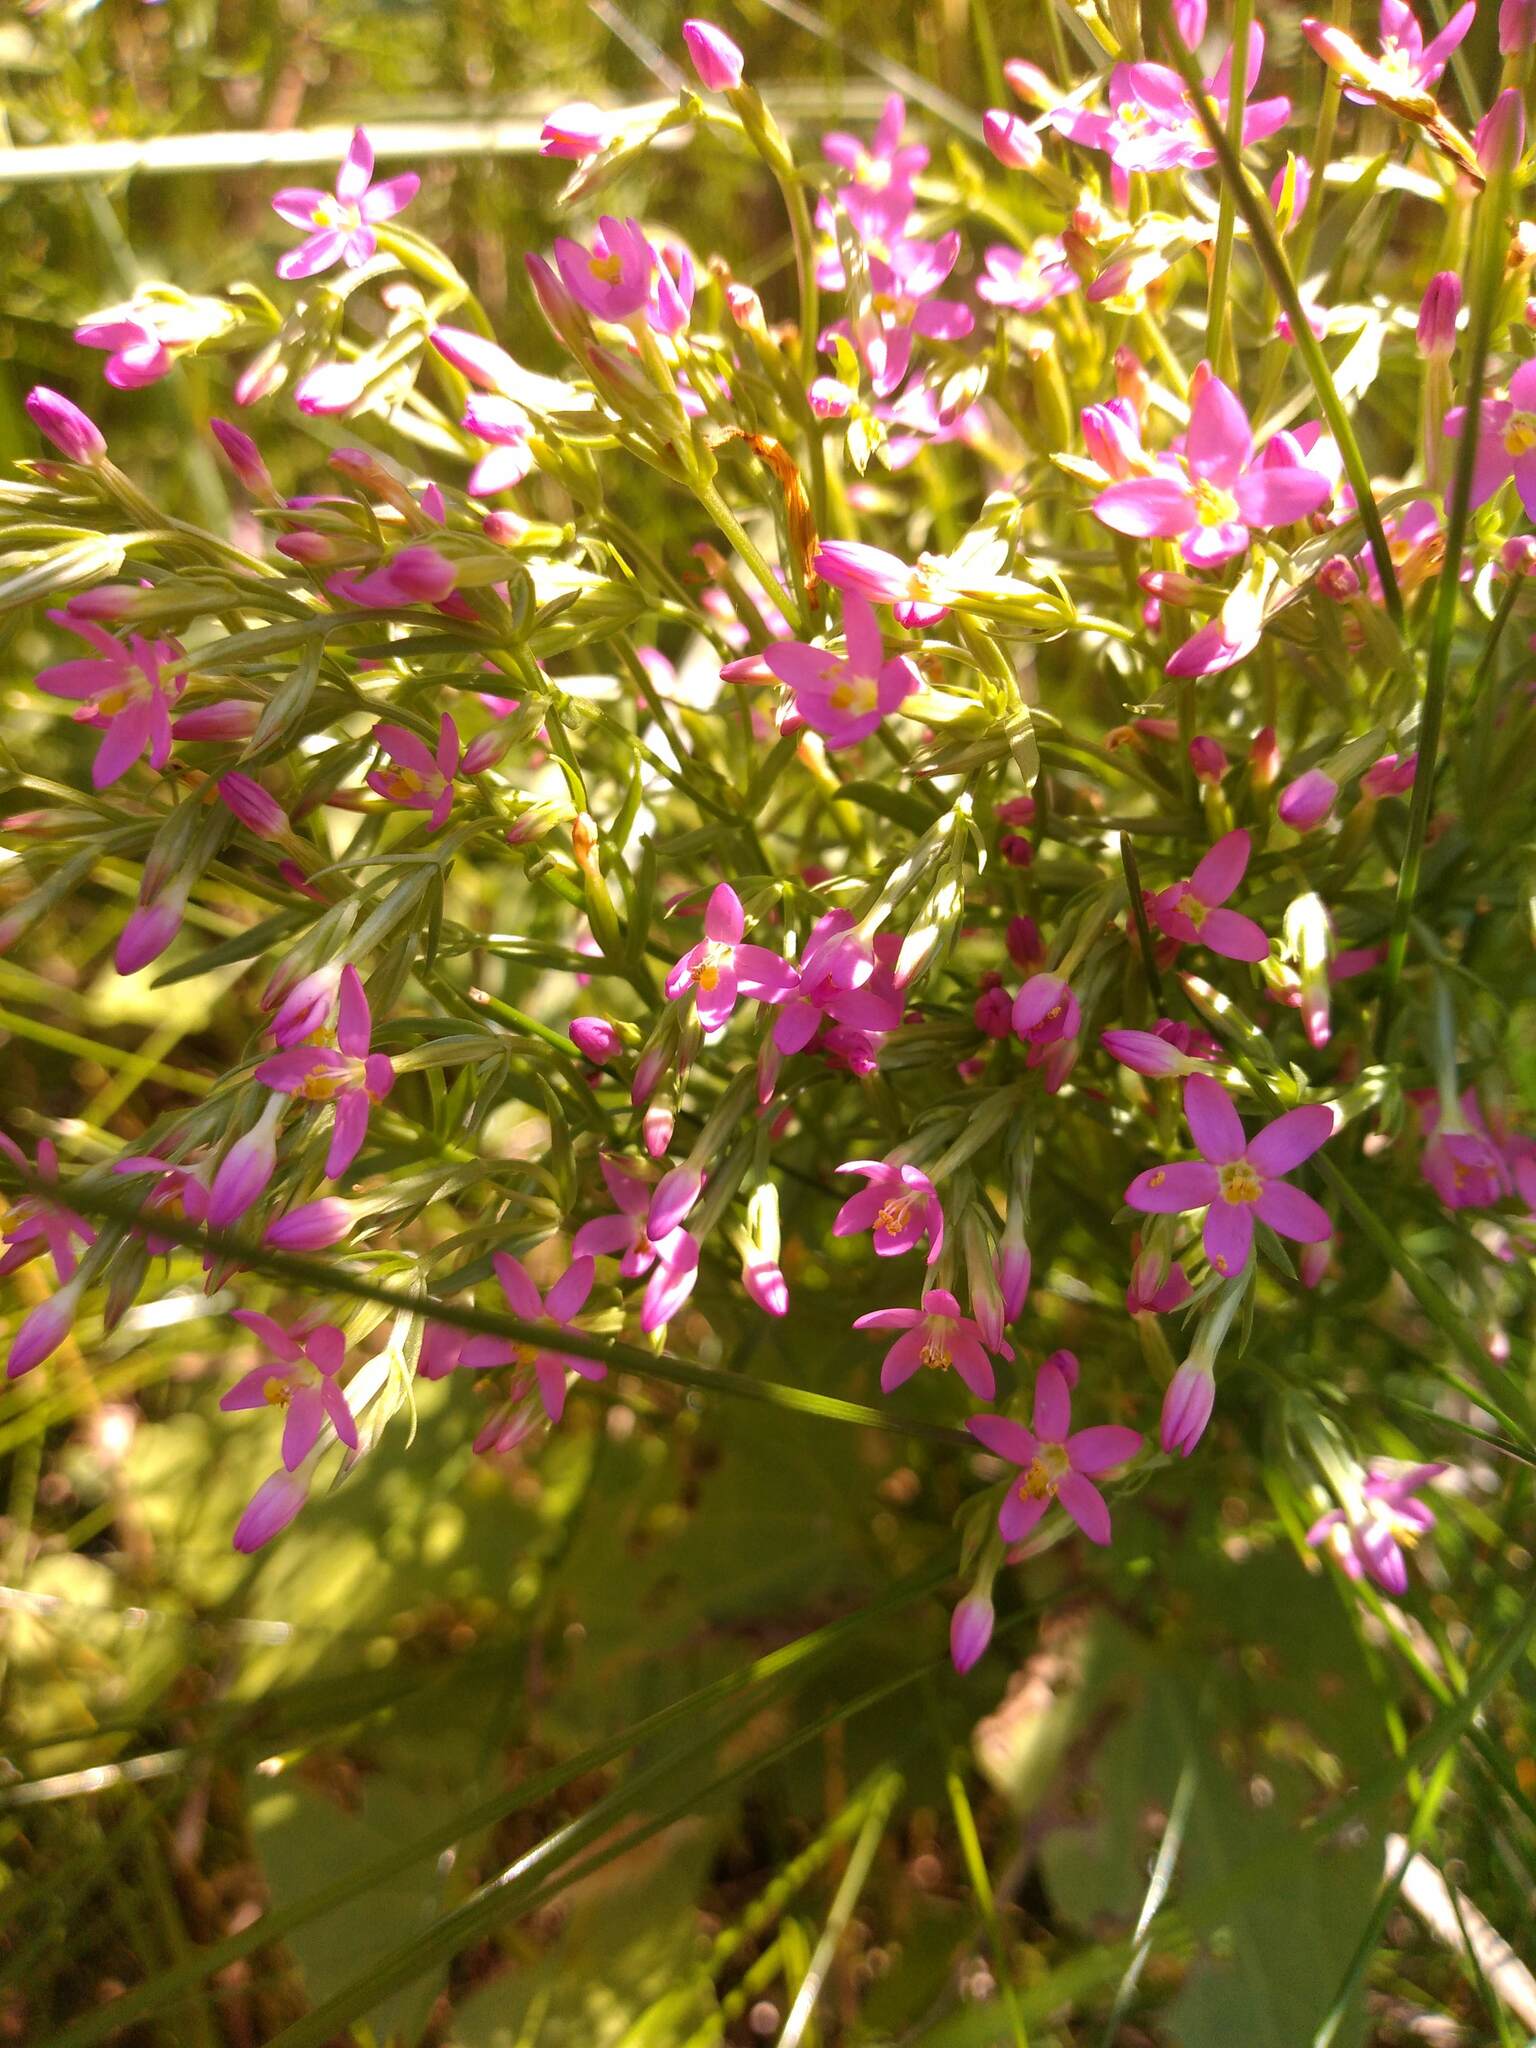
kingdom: Plantae
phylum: Tracheophyta
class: Magnoliopsida
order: Gentianales
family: Gentianaceae
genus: Centaurium
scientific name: Centaurium pulchellum
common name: Lesser centaury
